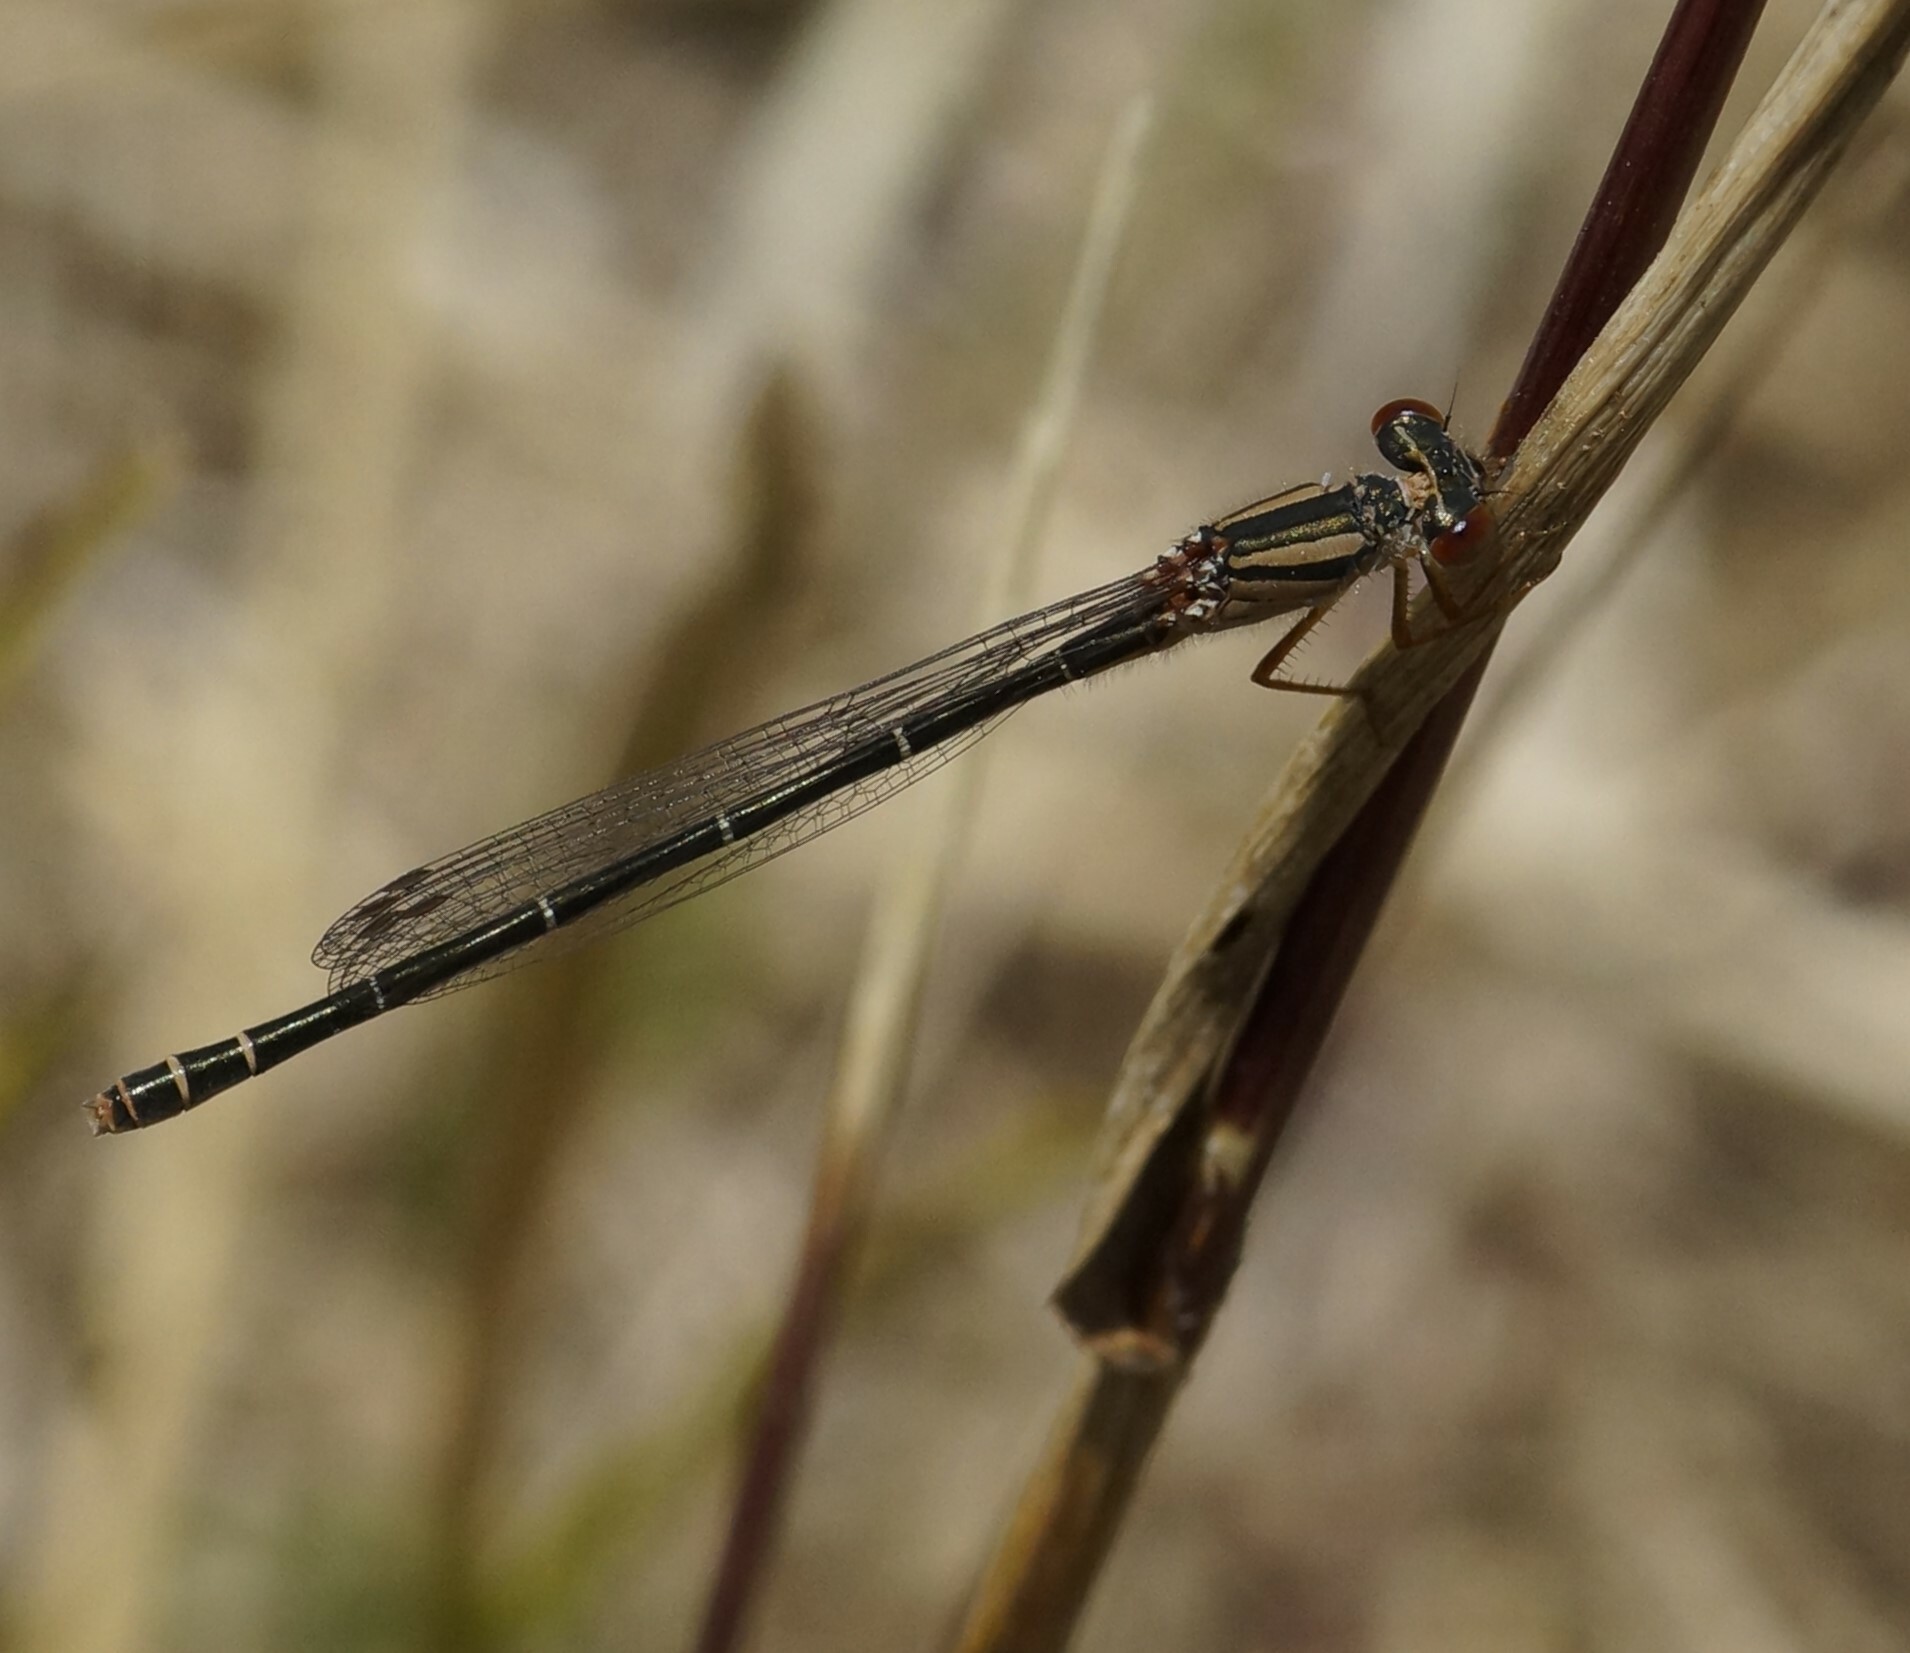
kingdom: Animalia
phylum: Arthropoda
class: Insecta
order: Odonata
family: Coenagrionidae
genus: Xanthagrion
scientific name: Xanthagrion erythroneurum
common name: Red and blue damsel
